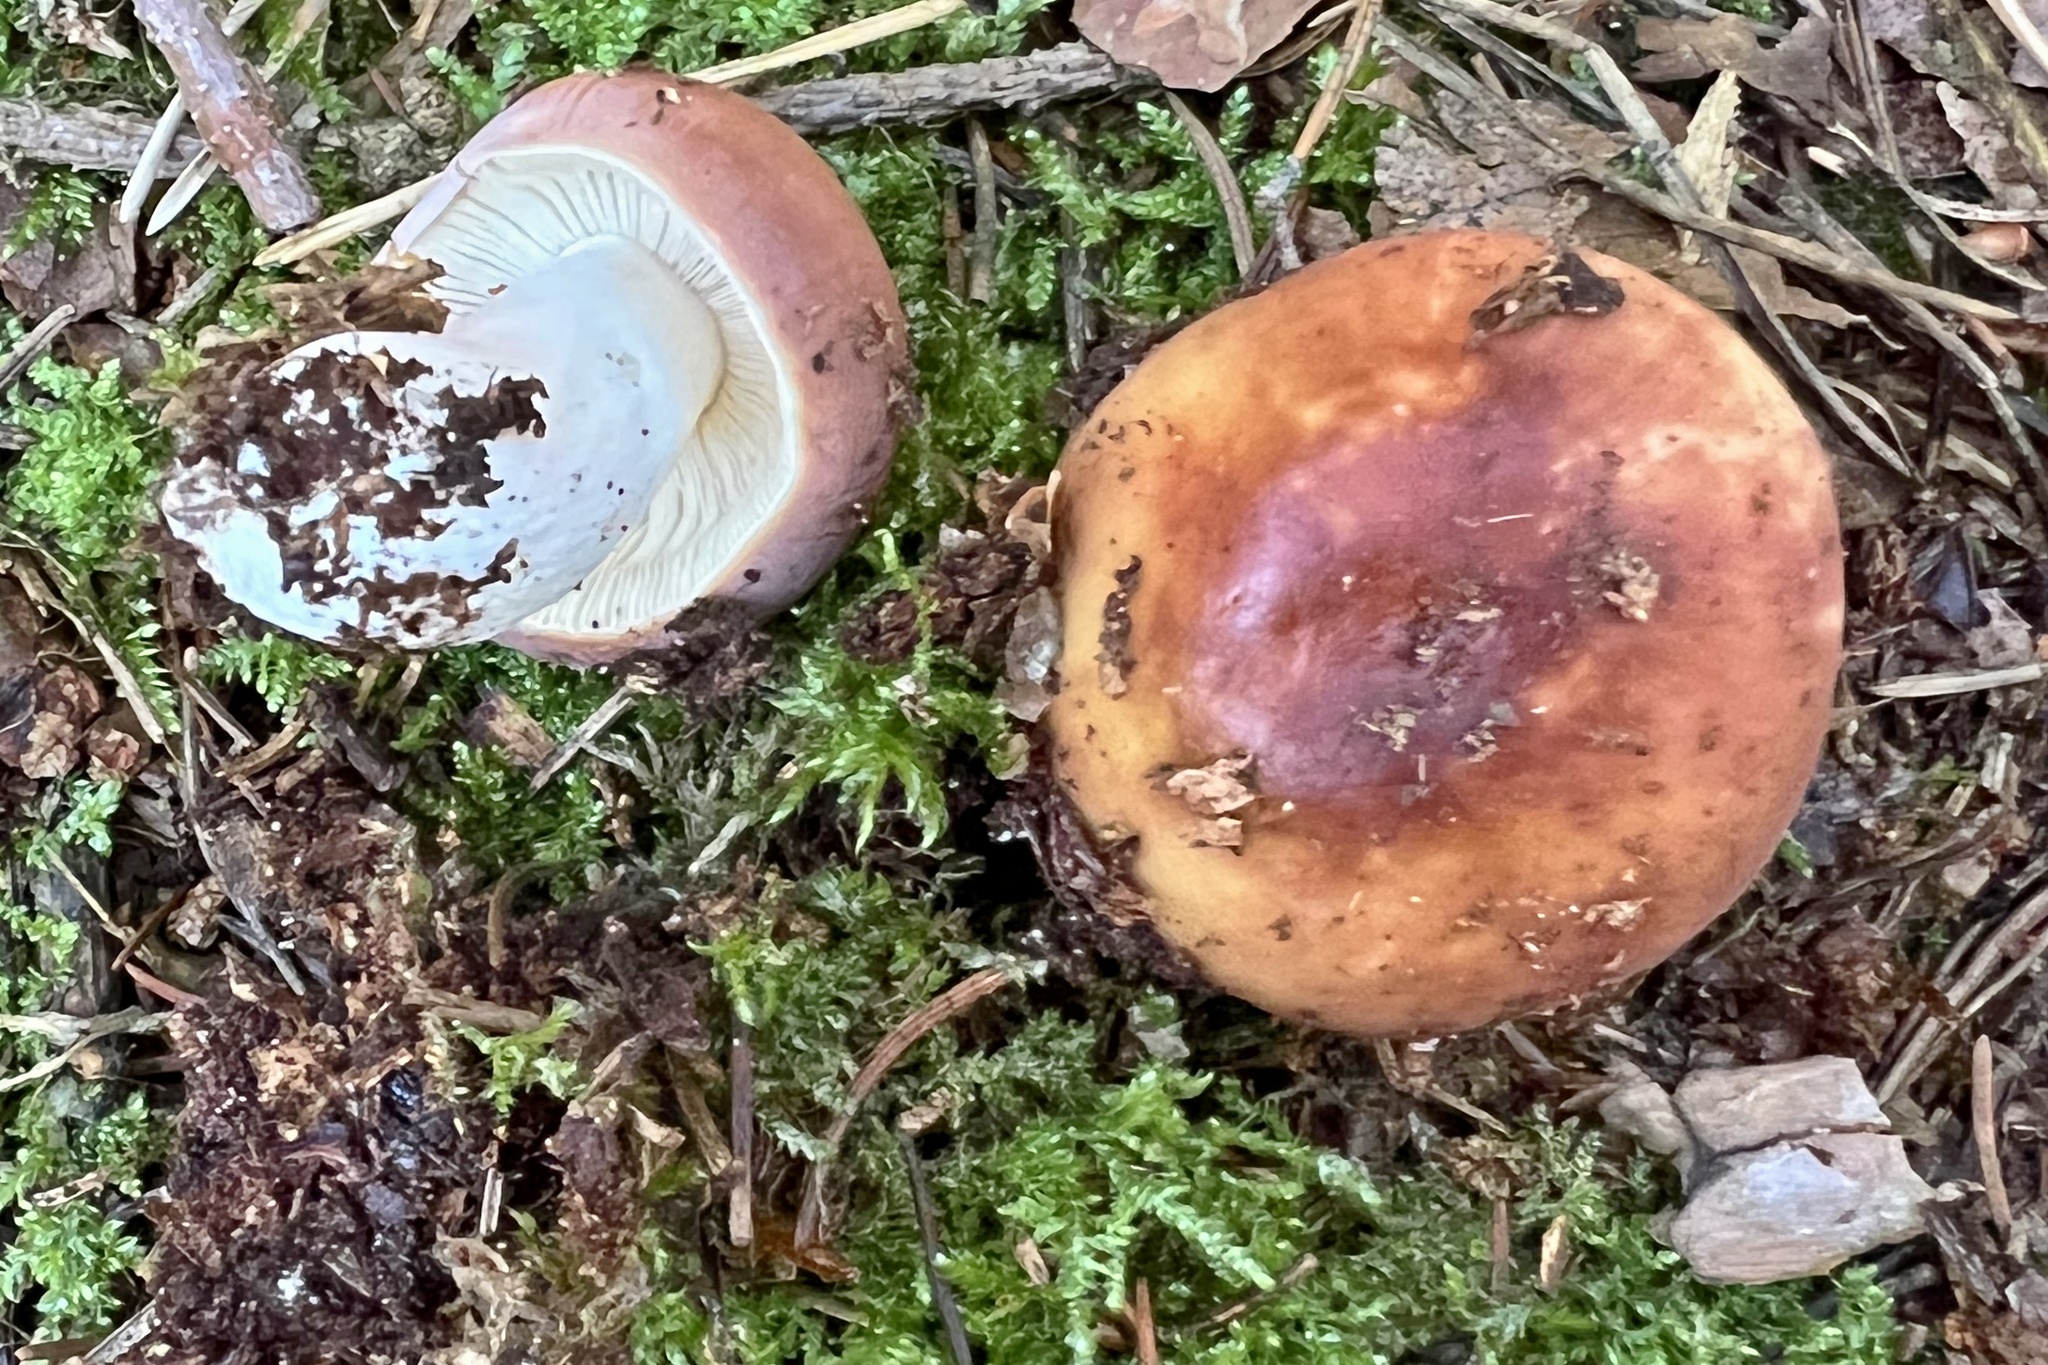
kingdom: Fungi
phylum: Basidiomycota
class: Agaricomycetes
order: Russulales
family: Russulaceae
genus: Russula
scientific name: Russula vesca
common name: Bare-toothed russula
